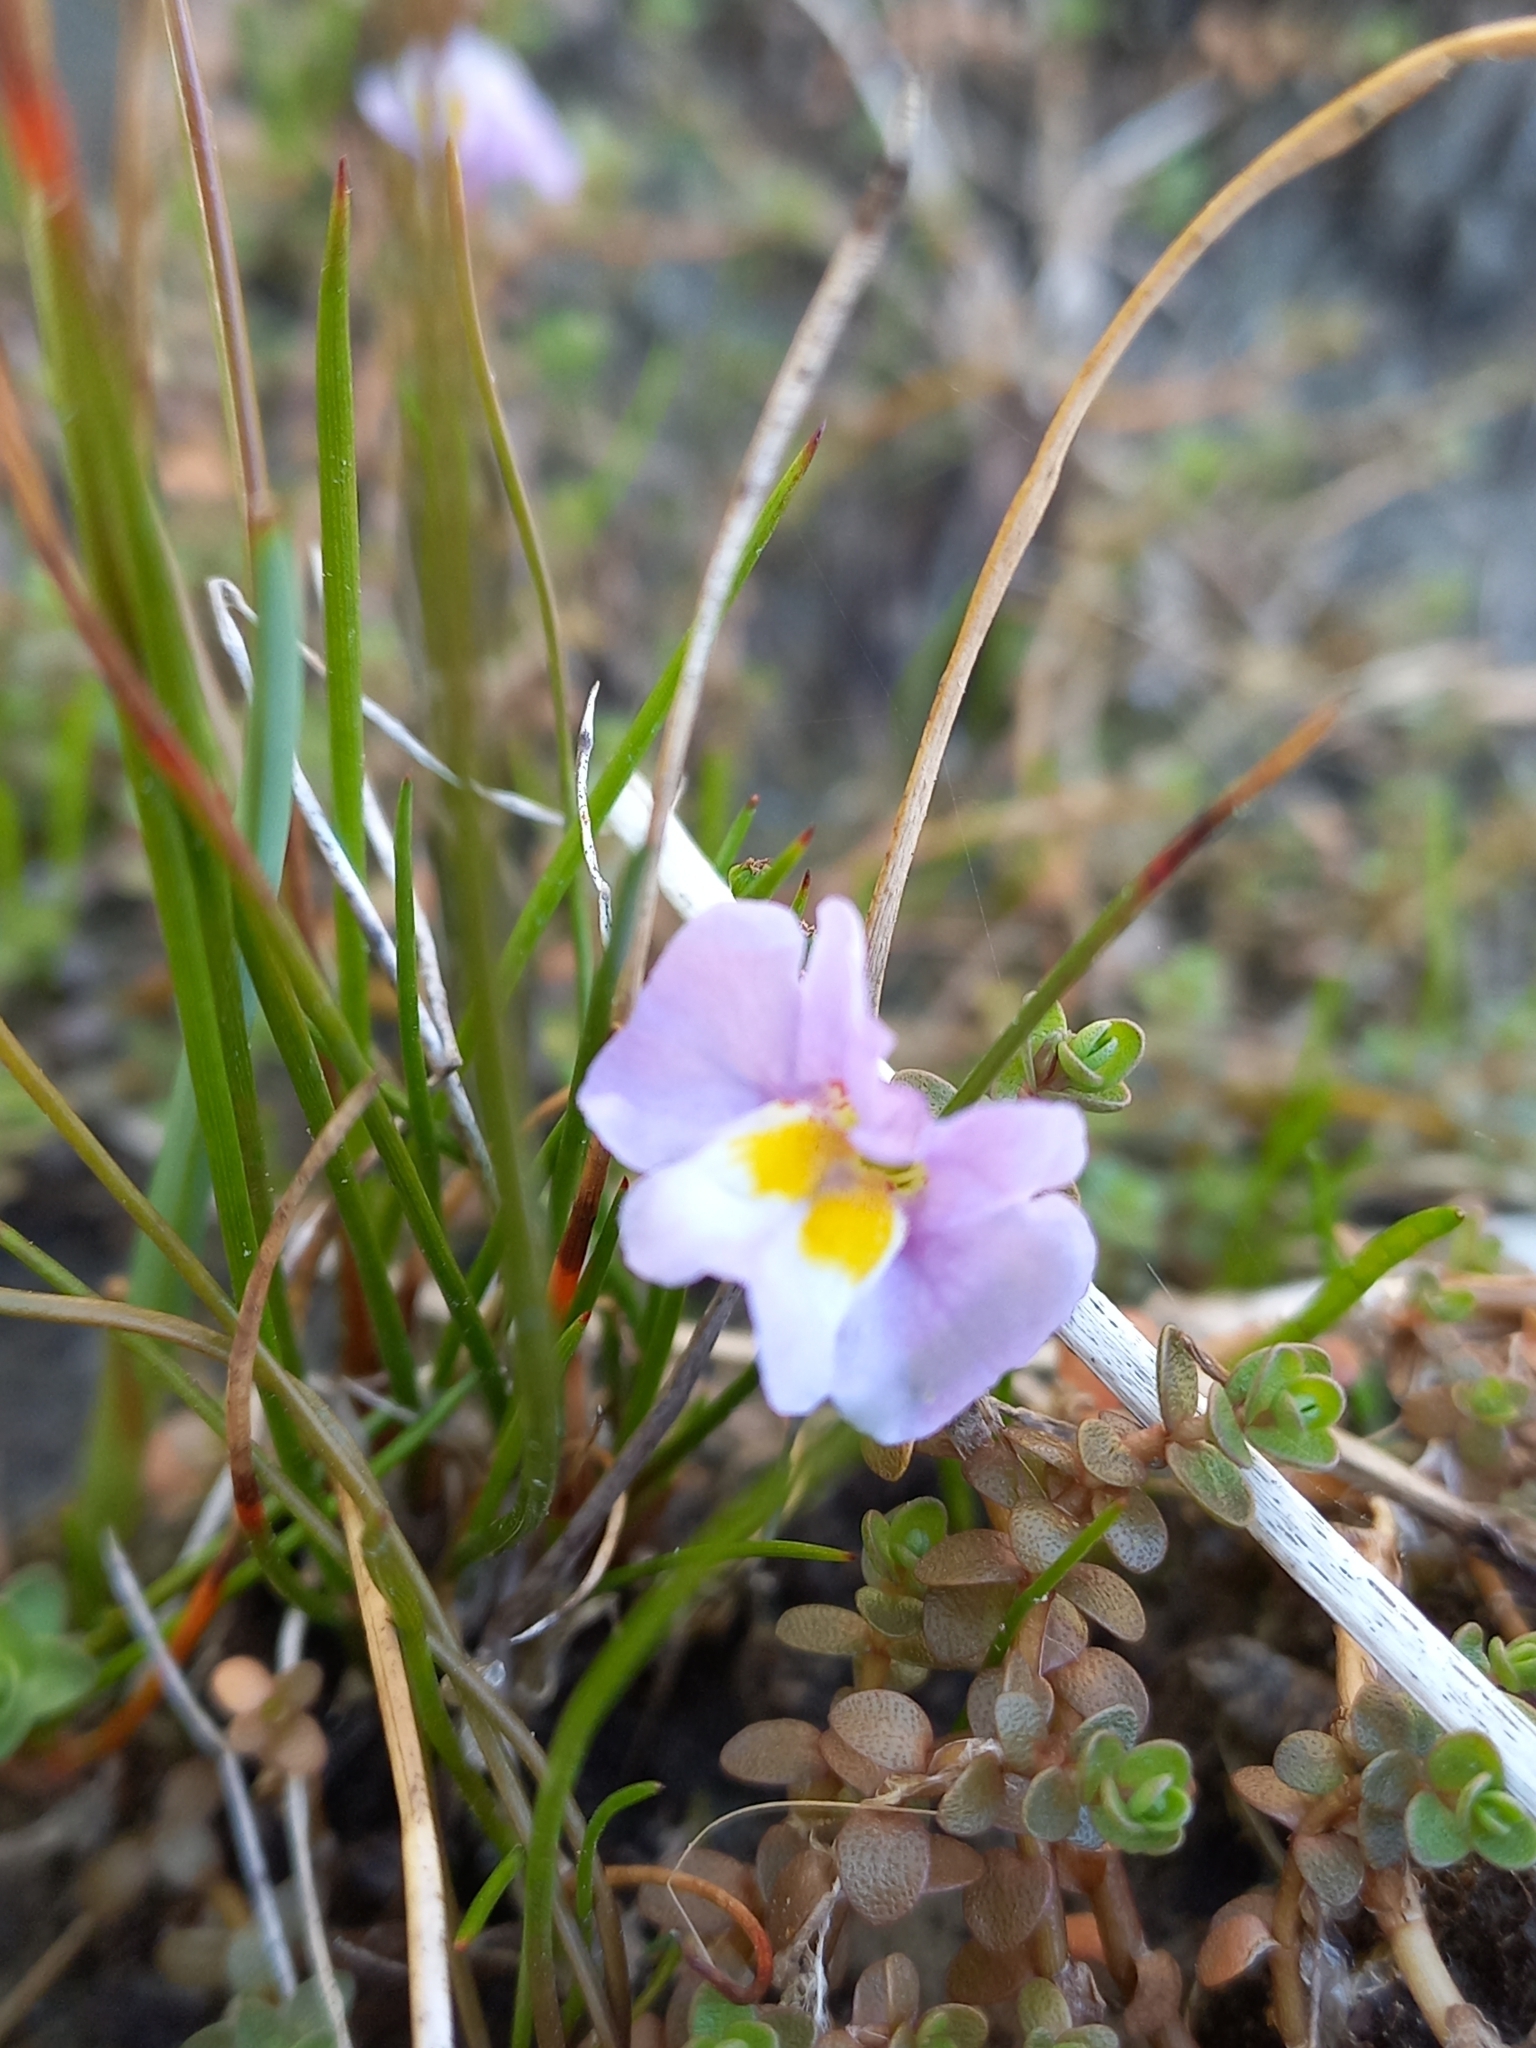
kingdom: Plantae
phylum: Tracheophyta
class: Magnoliopsida
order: Lamiales
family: Phrymaceae
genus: Thyridia
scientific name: Thyridia repens
